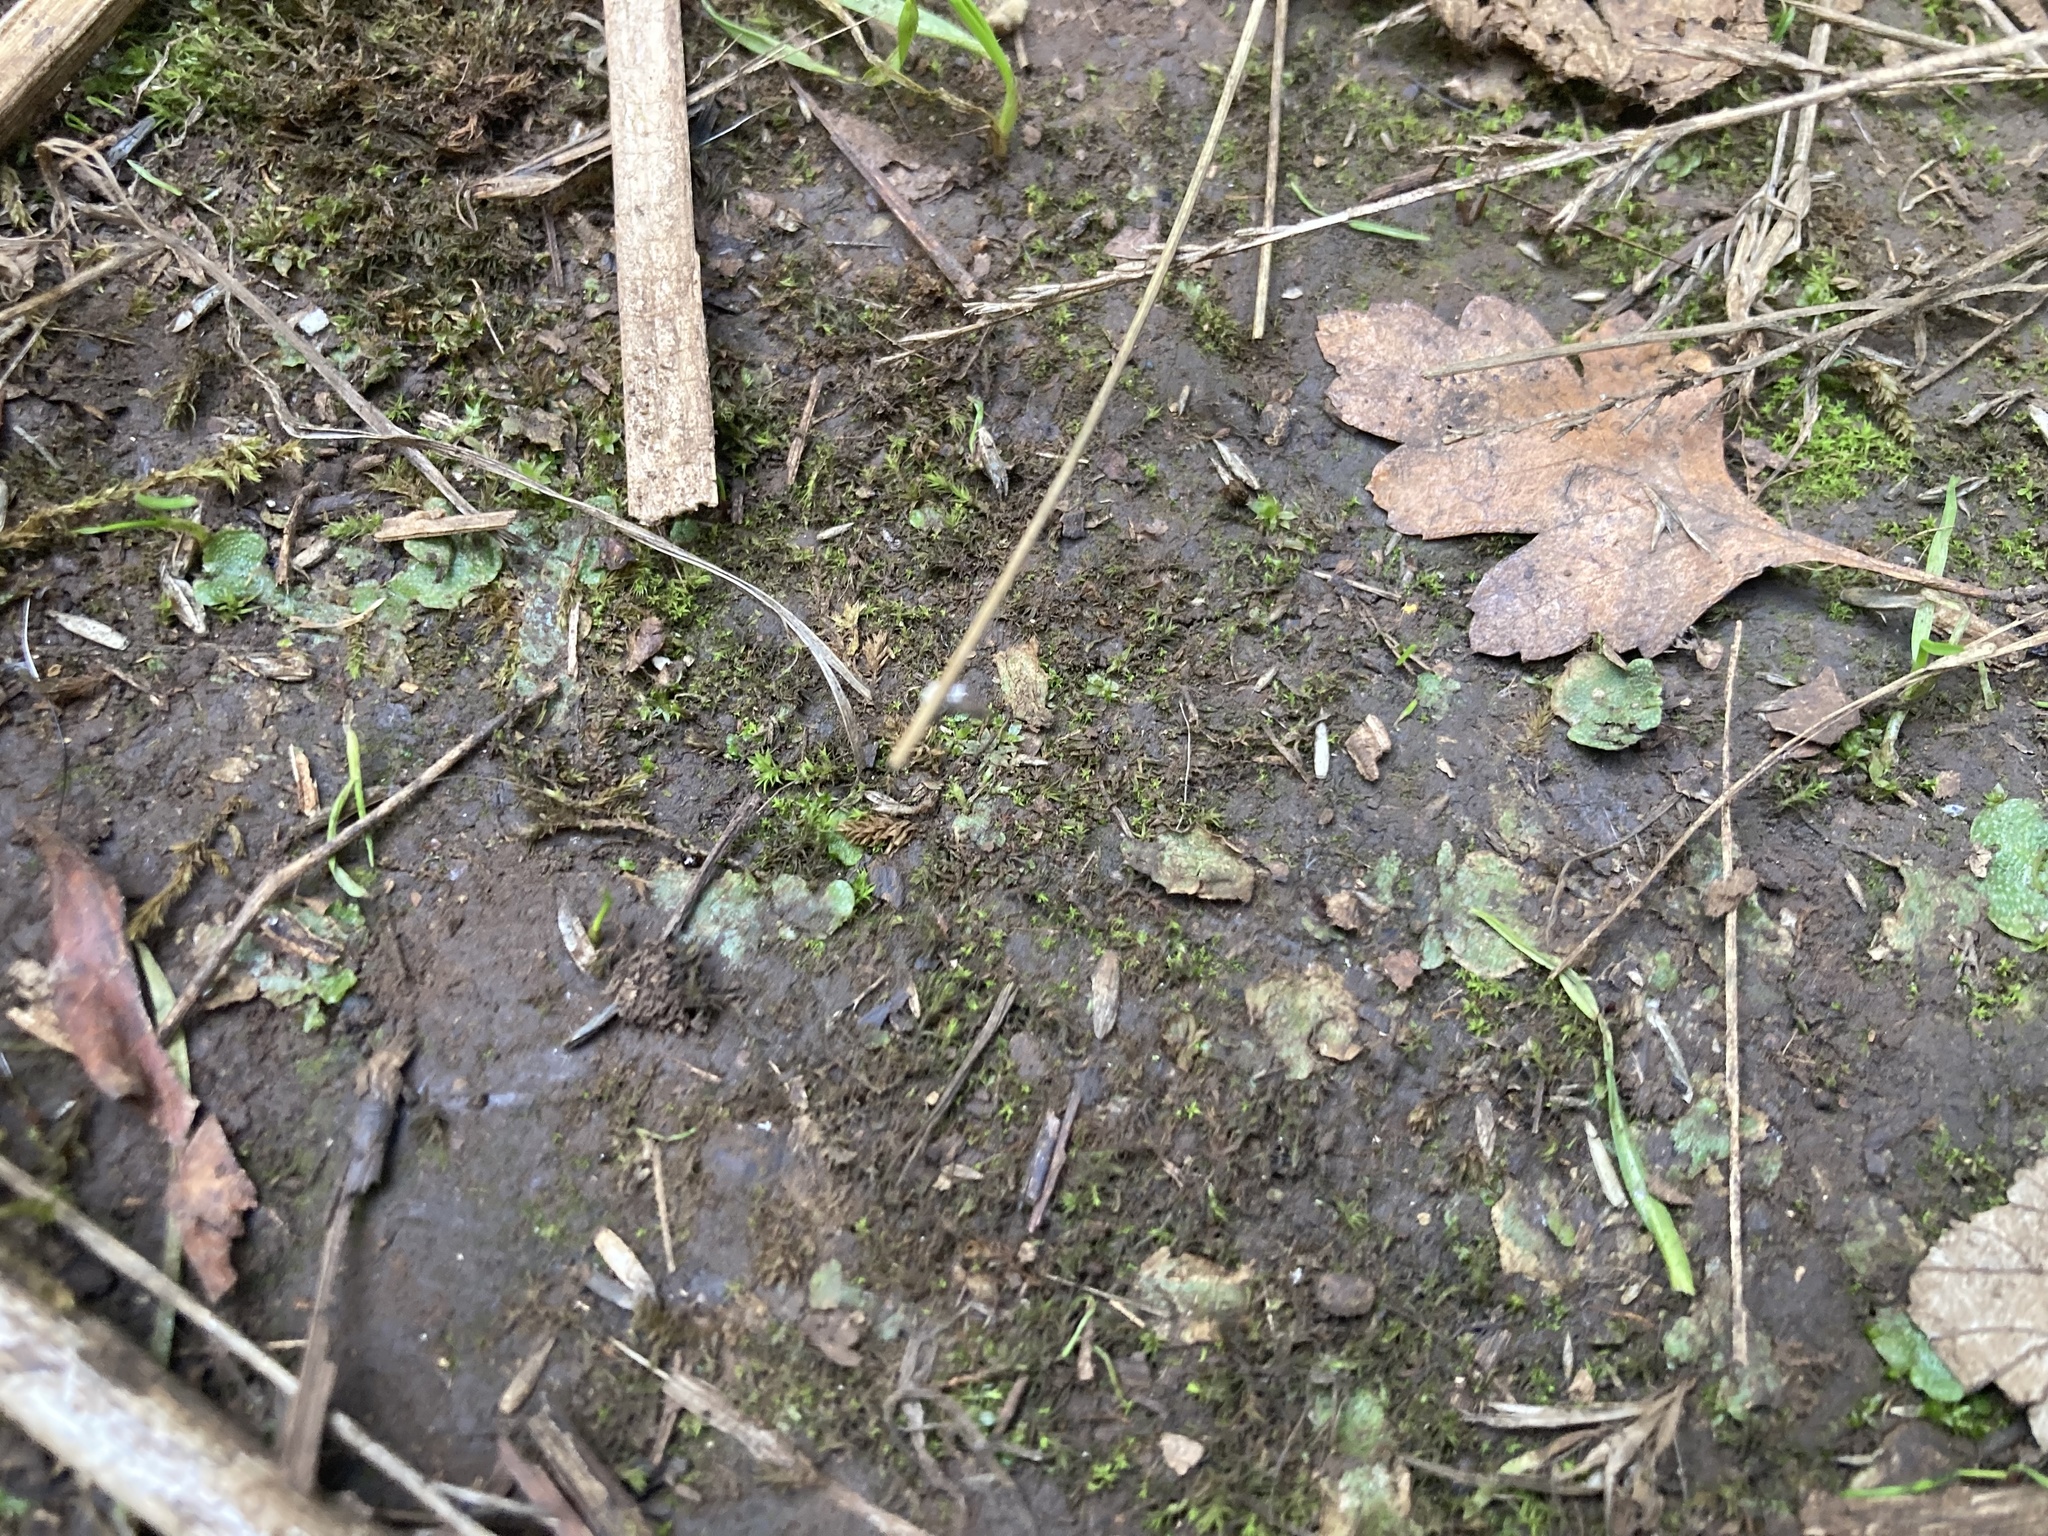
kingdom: Plantae
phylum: Marchantiophyta
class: Marchantiopsida
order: Lunulariales
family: Lunulariaceae
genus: Lunularia
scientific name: Lunularia cruciata
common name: Crescent-cup liverwort
